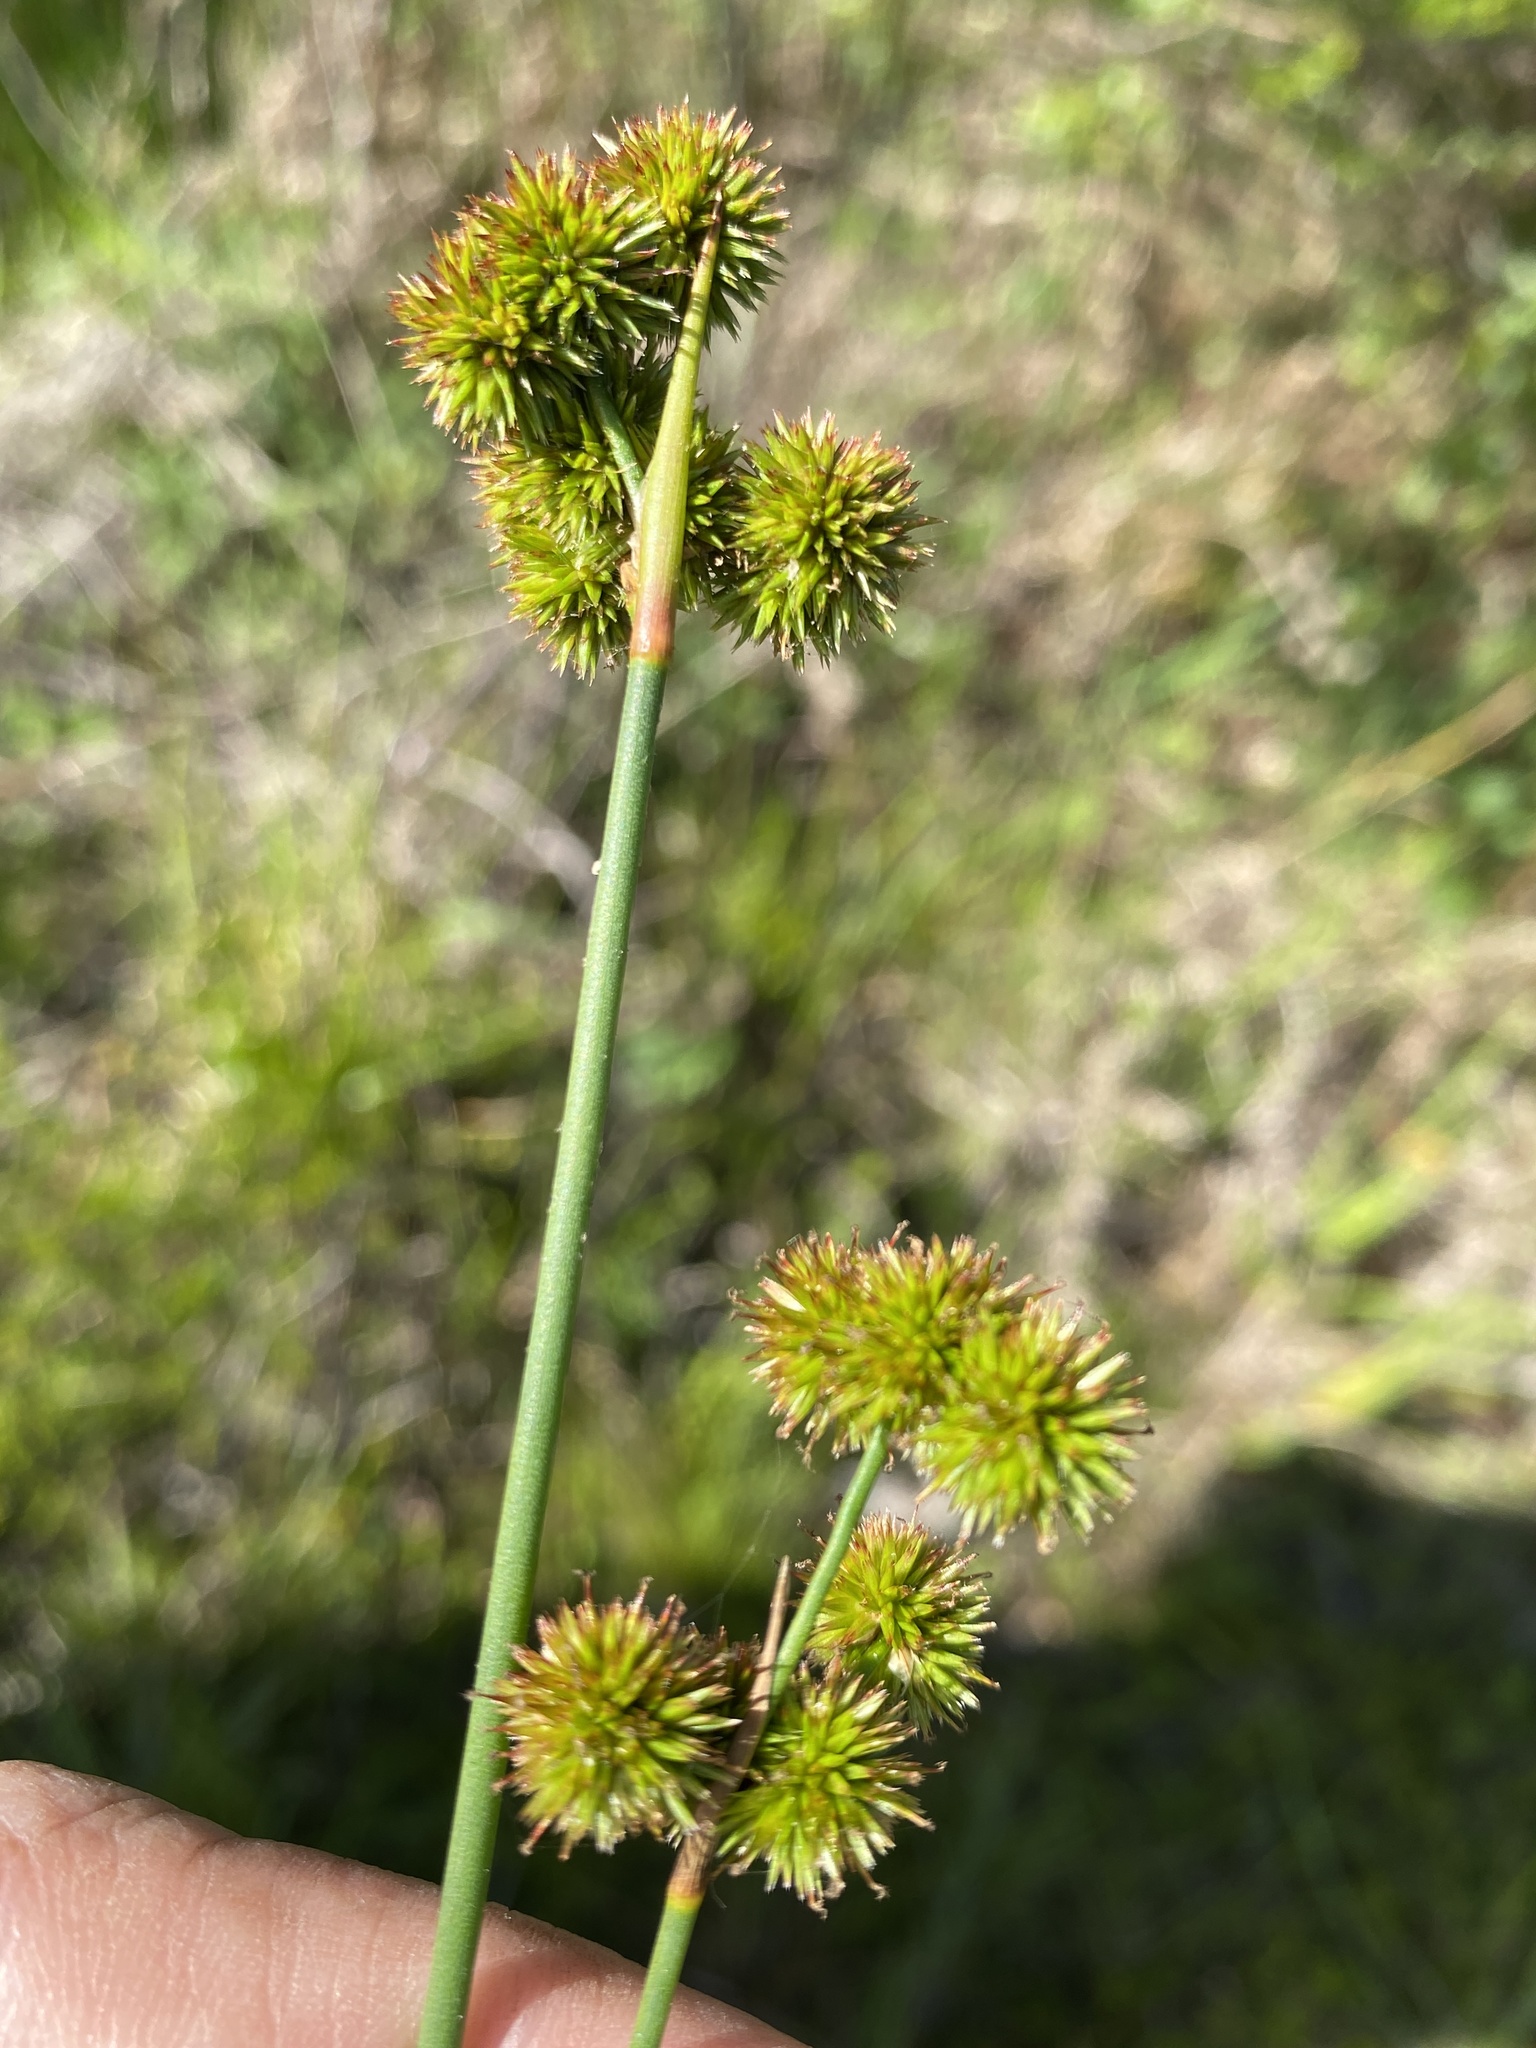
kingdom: Plantae
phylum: Tracheophyta
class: Liliopsida
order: Poales
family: Juncaceae
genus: Juncus
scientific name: Juncus megacephalus
